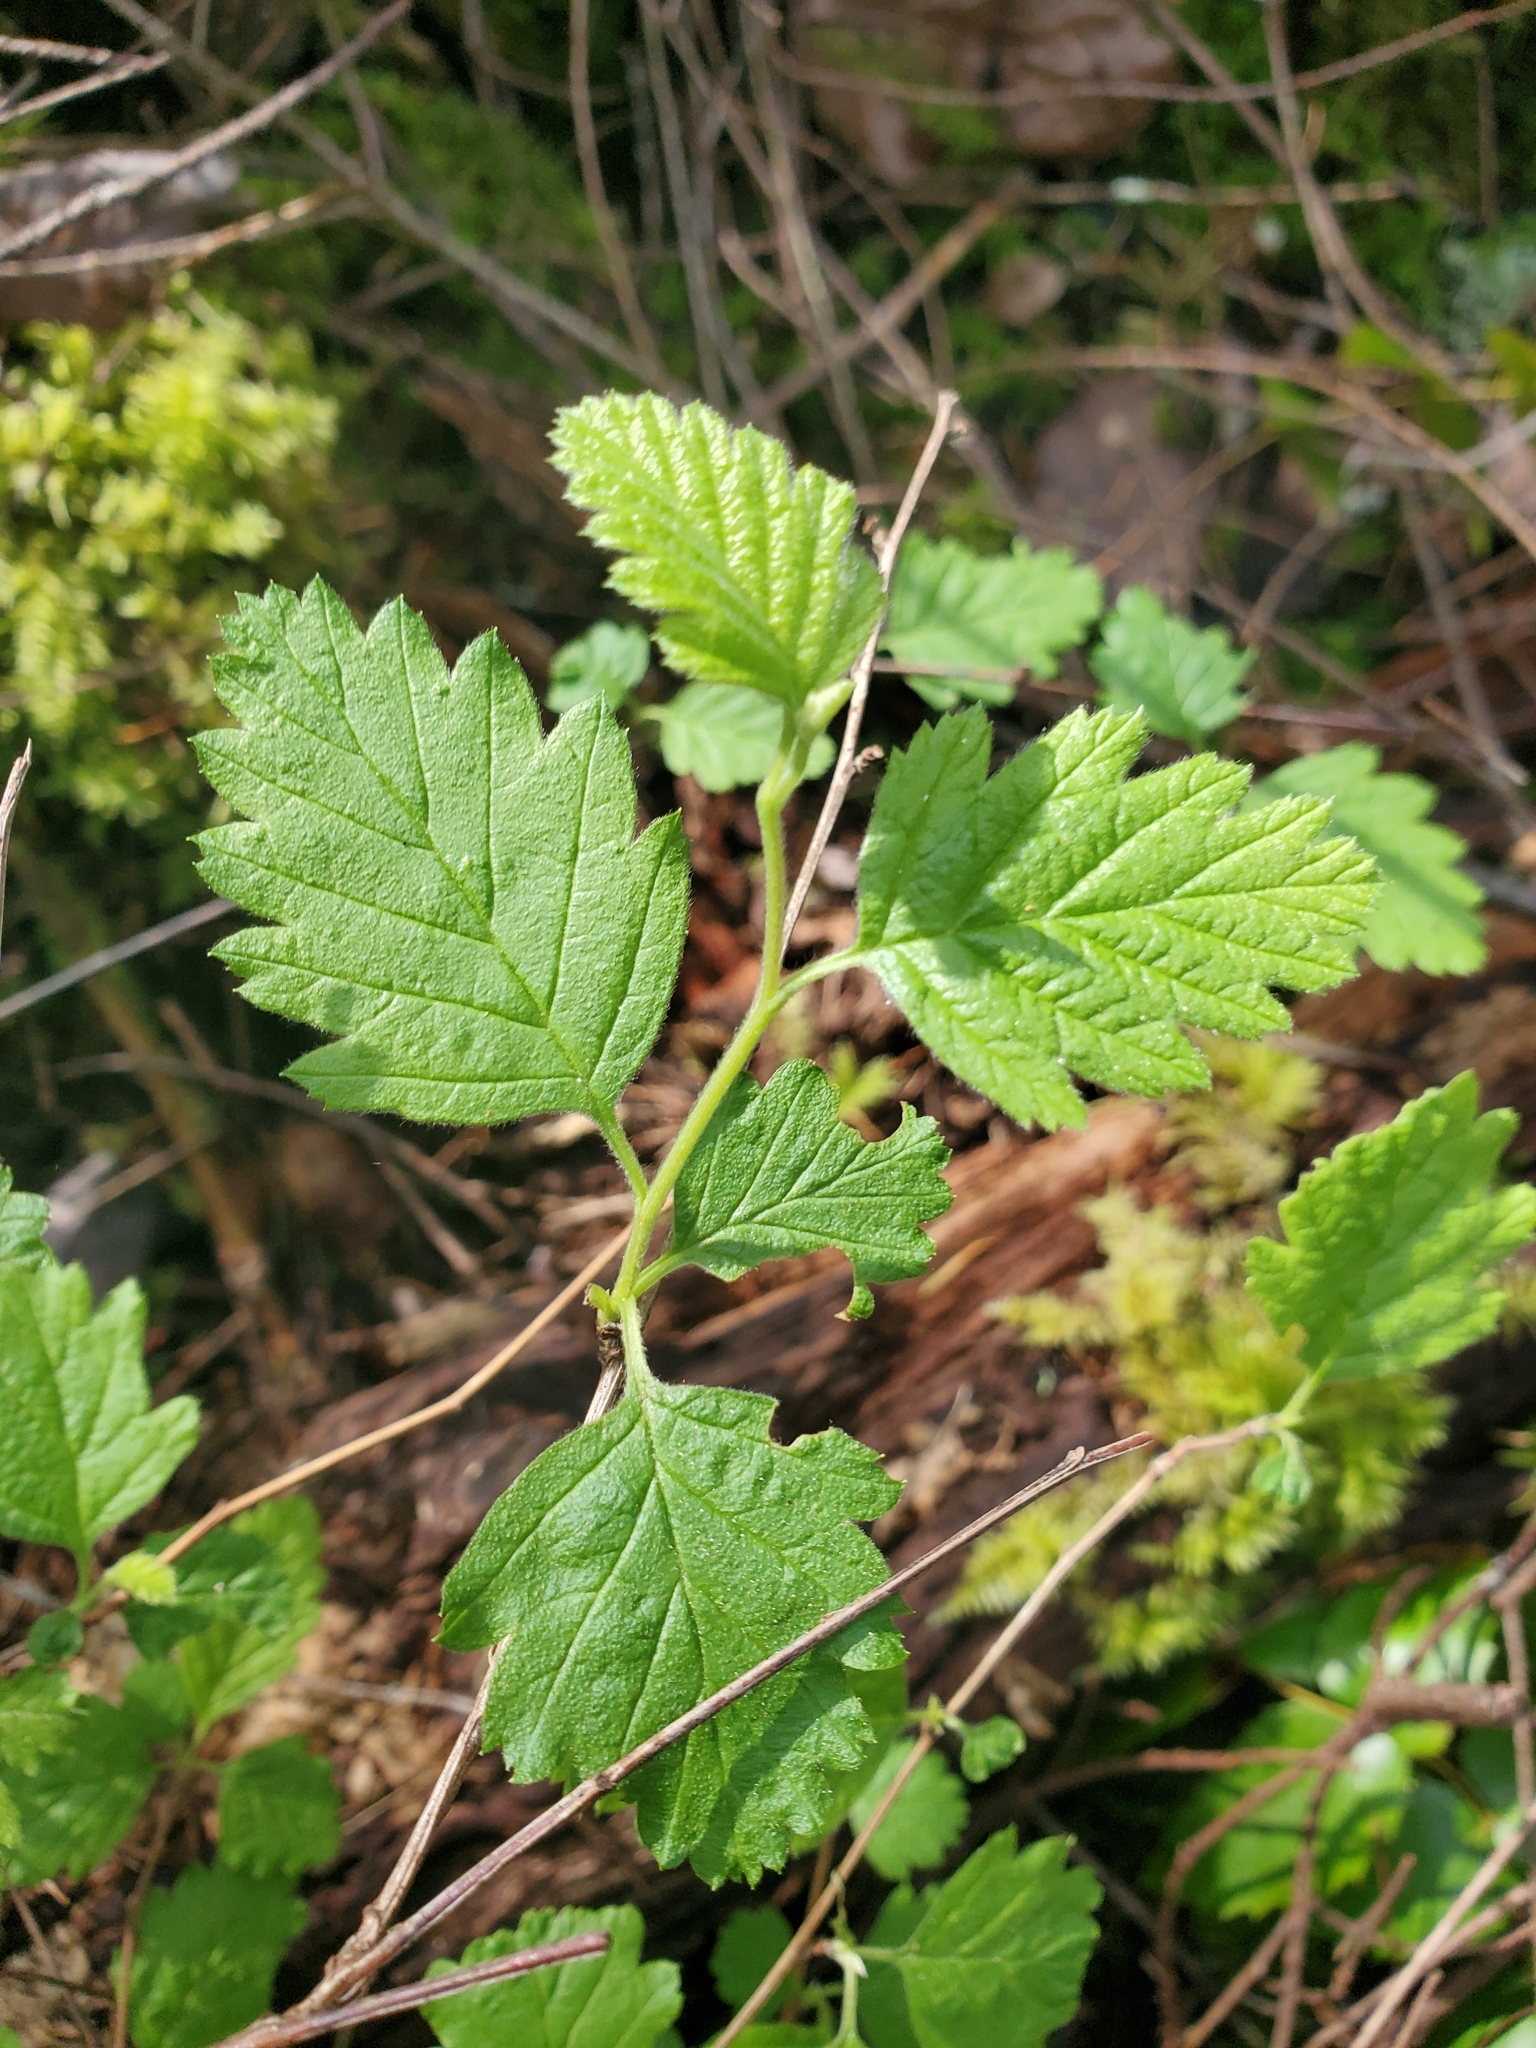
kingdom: Plantae
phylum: Tracheophyta
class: Magnoliopsida
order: Rosales
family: Rosaceae
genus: Holodiscus
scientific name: Holodiscus discolor
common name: Oceanspray
